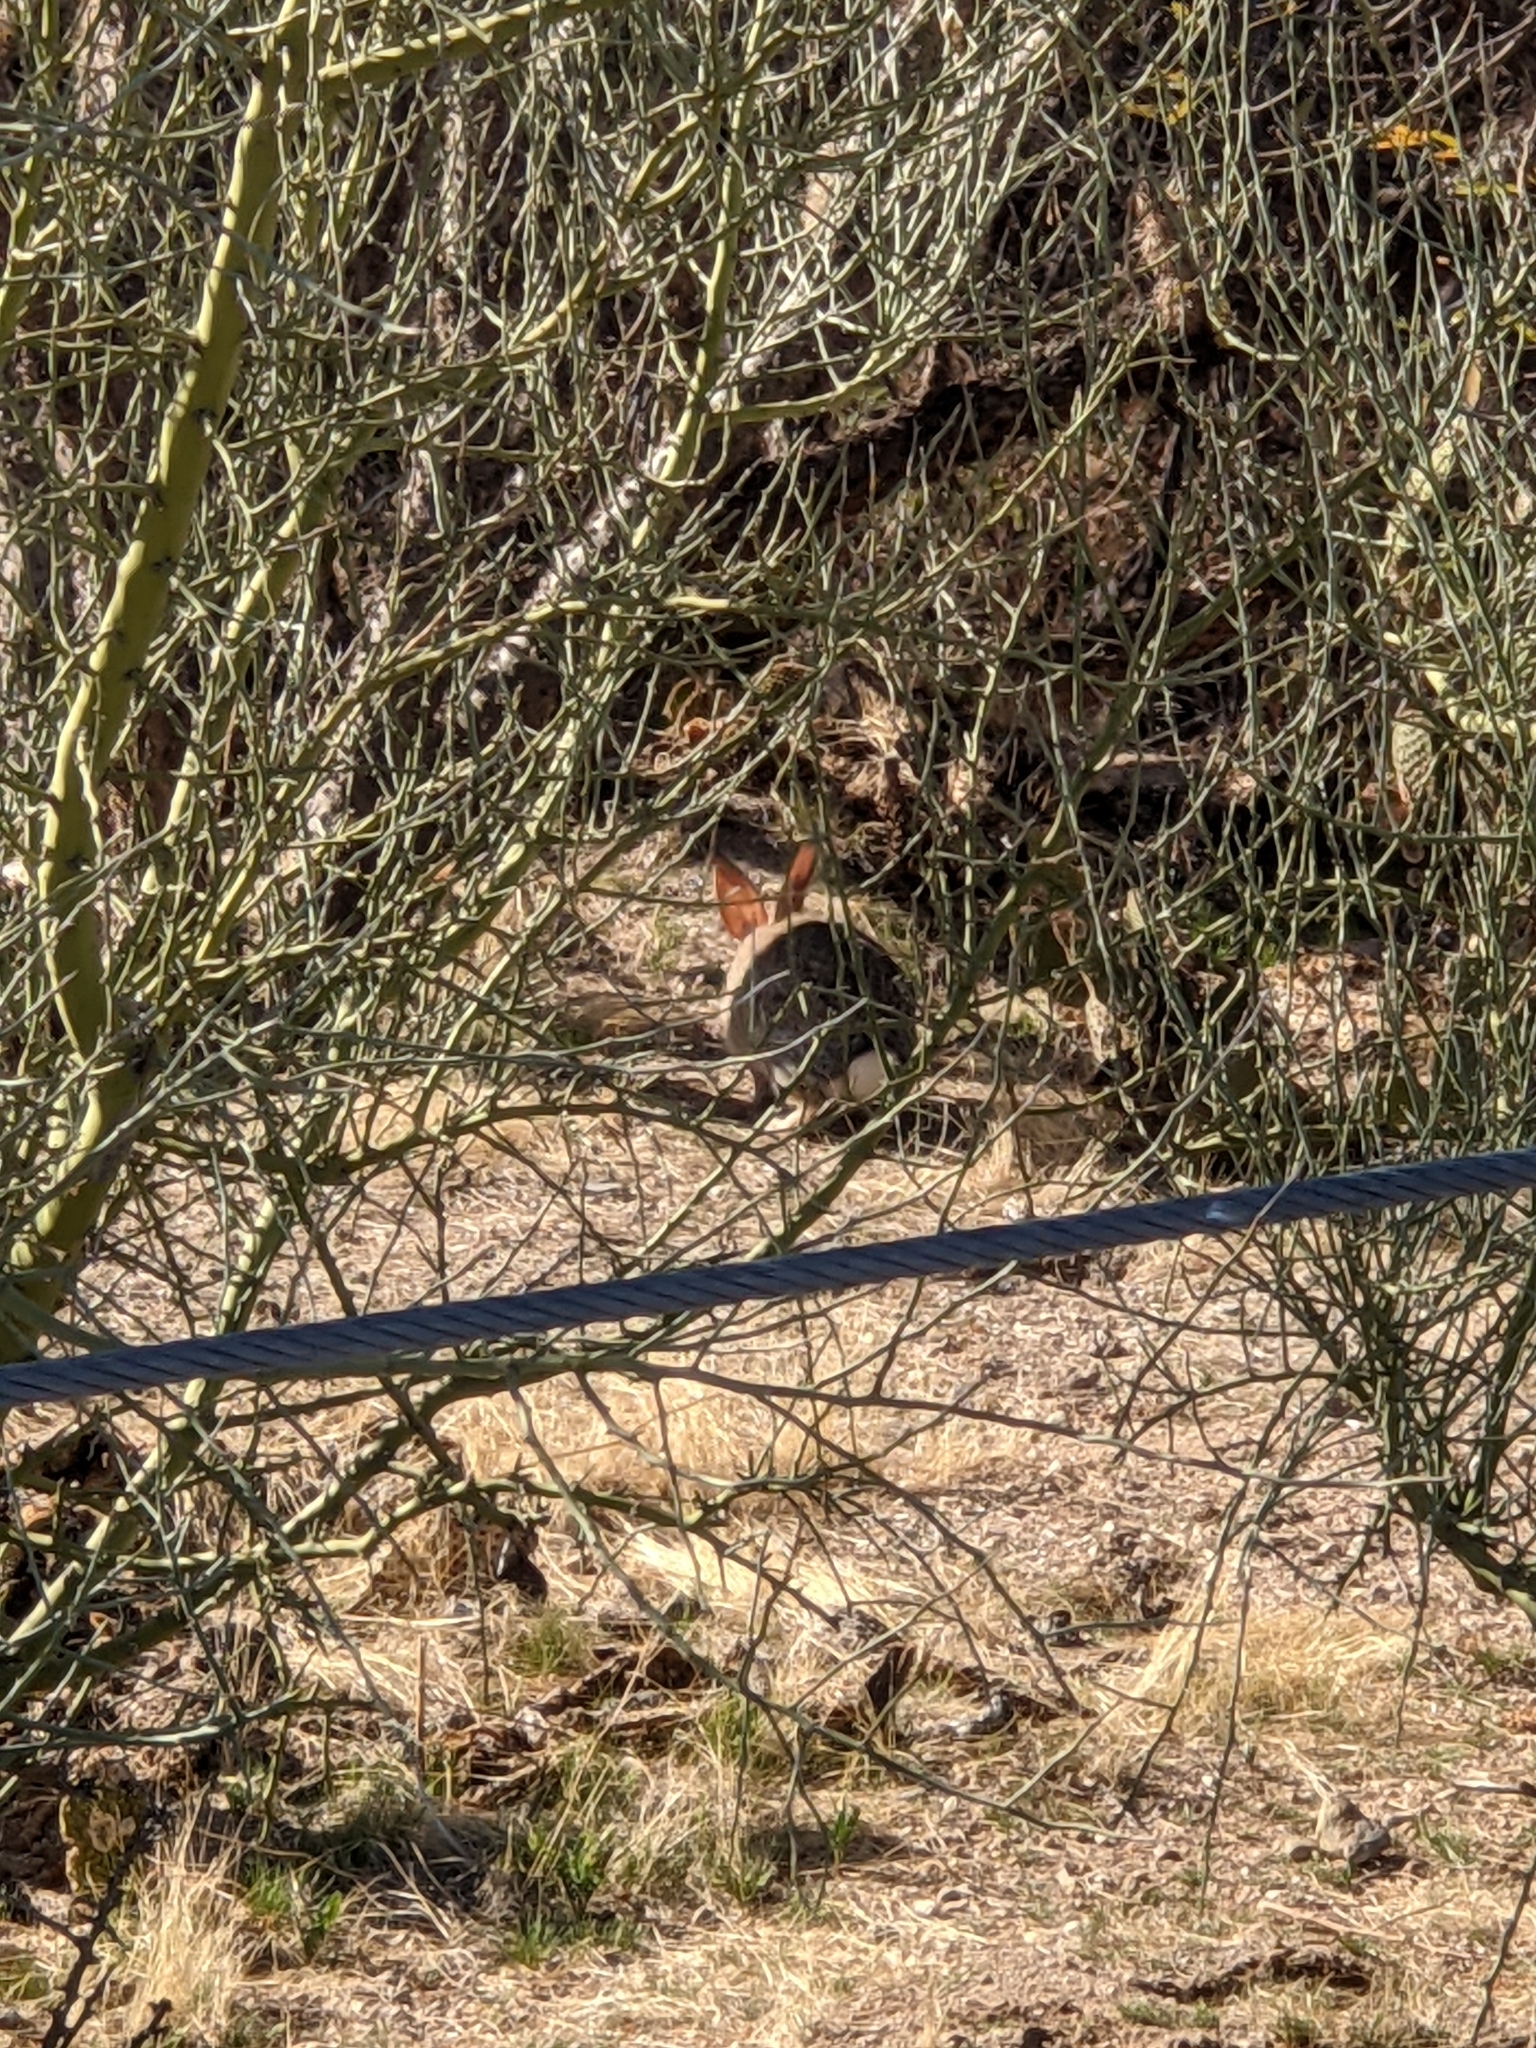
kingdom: Animalia
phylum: Chordata
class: Mammalia
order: Lagomorpha
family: Leporidae
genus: Sylvilagus
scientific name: Sylvilagus audubonii
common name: Desert cottontail
